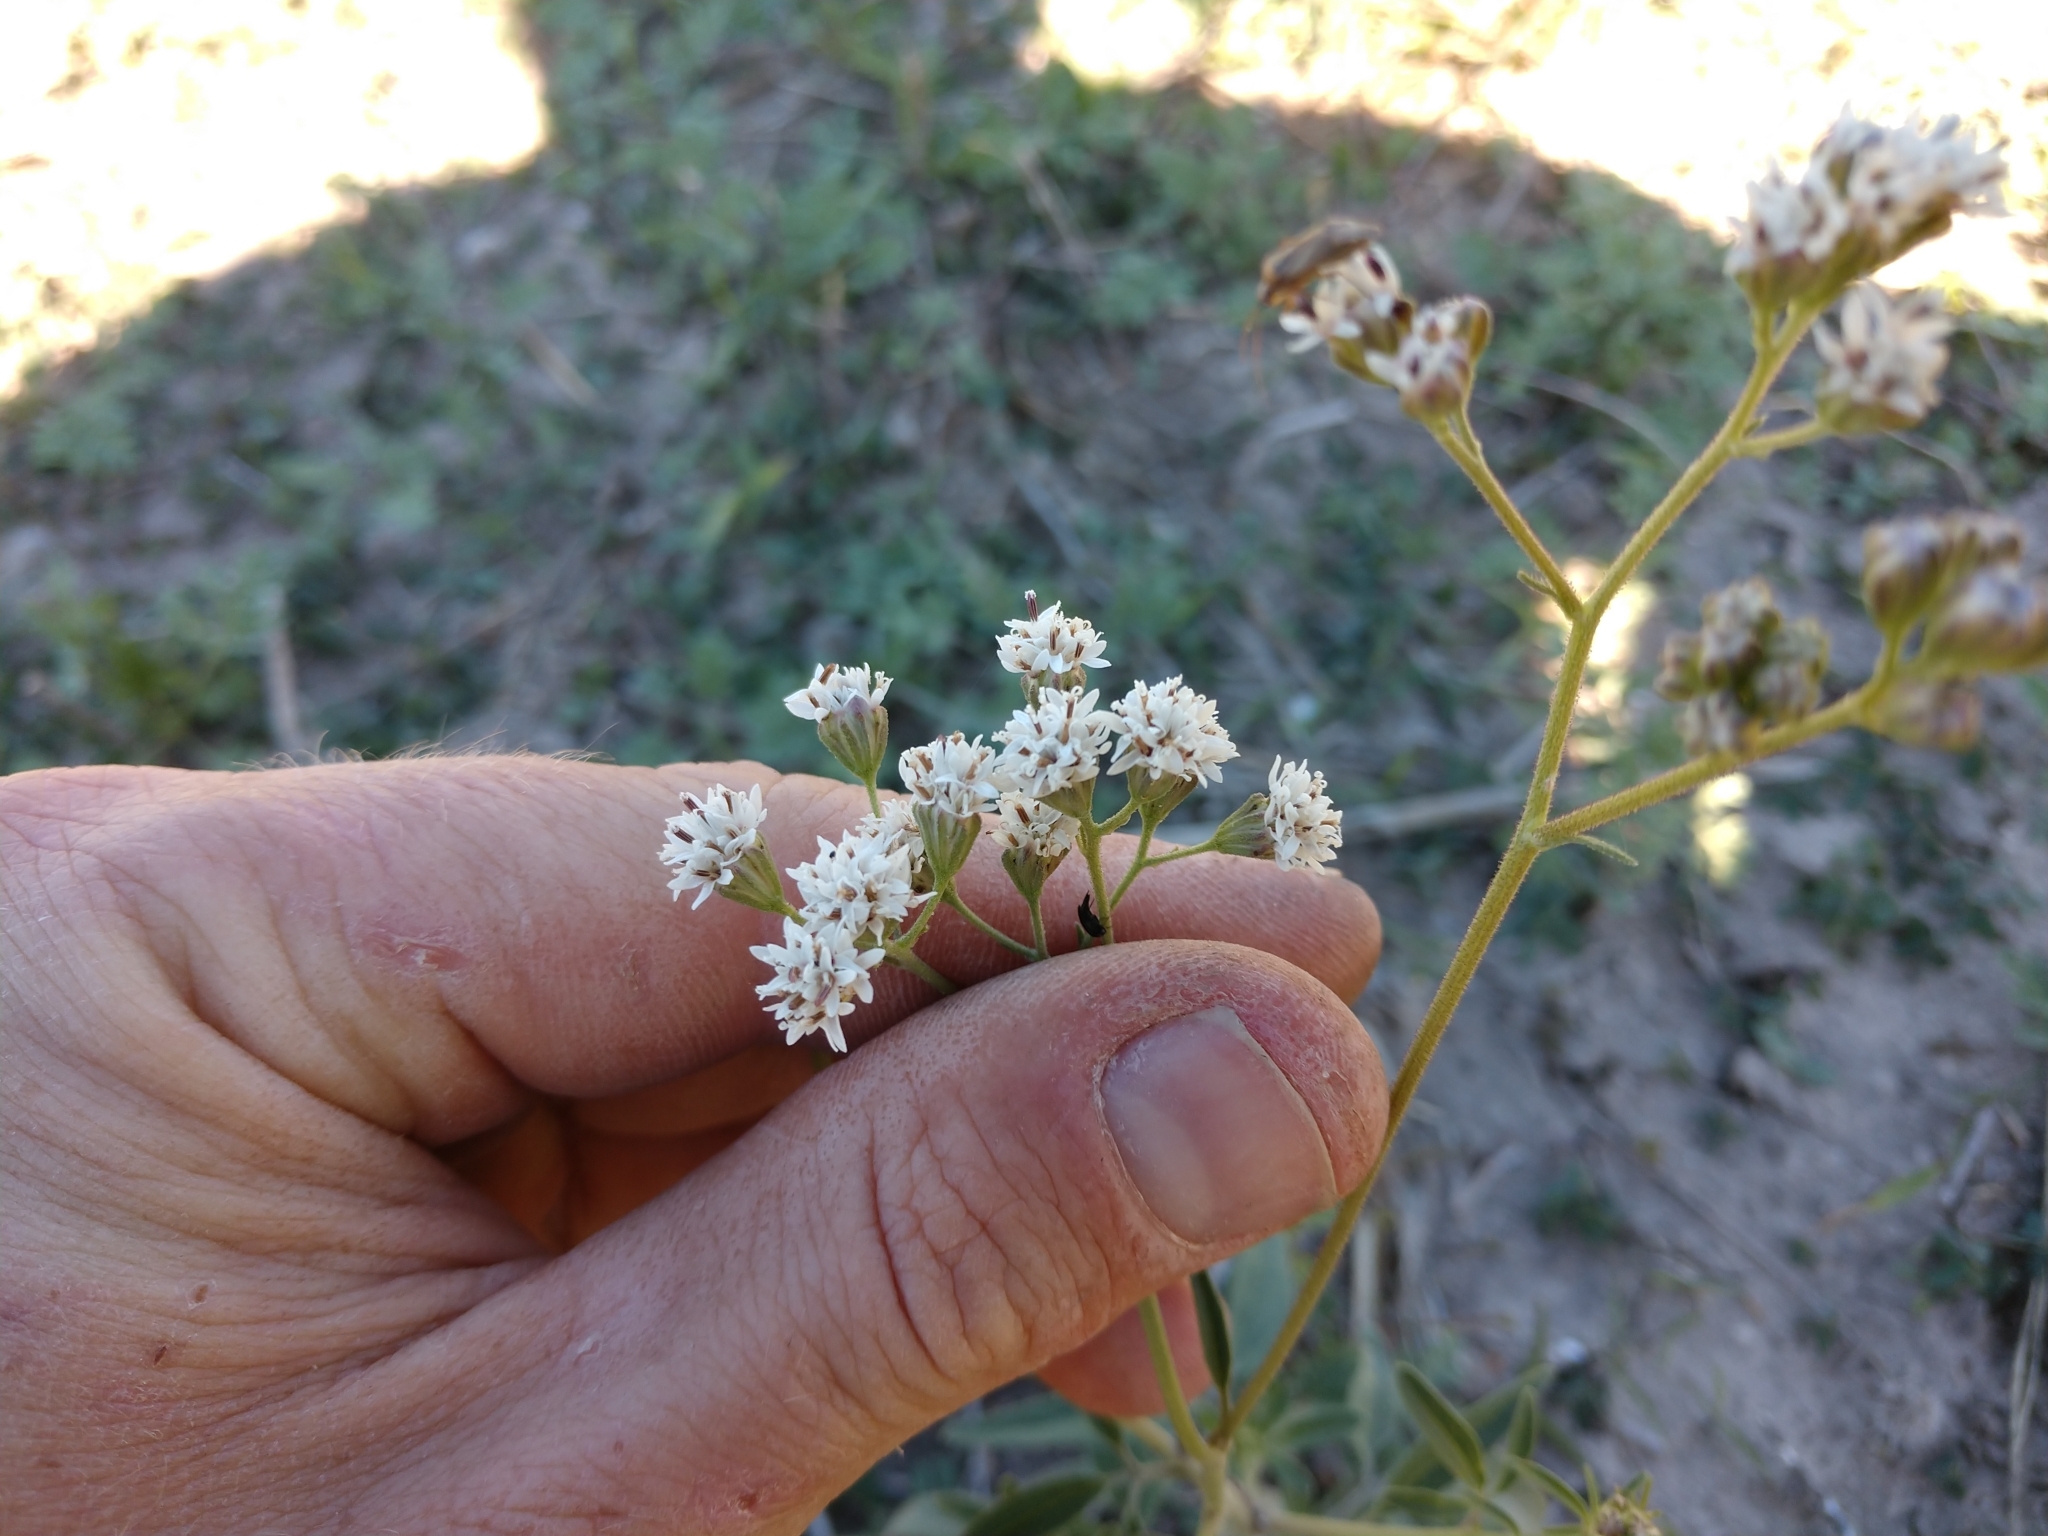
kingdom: Plantae
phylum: Tracheophyta
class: Magnoliopsida
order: Asterales
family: Asteraceae
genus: Florestina
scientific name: Florestina tripteris
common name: Sticky florestina
